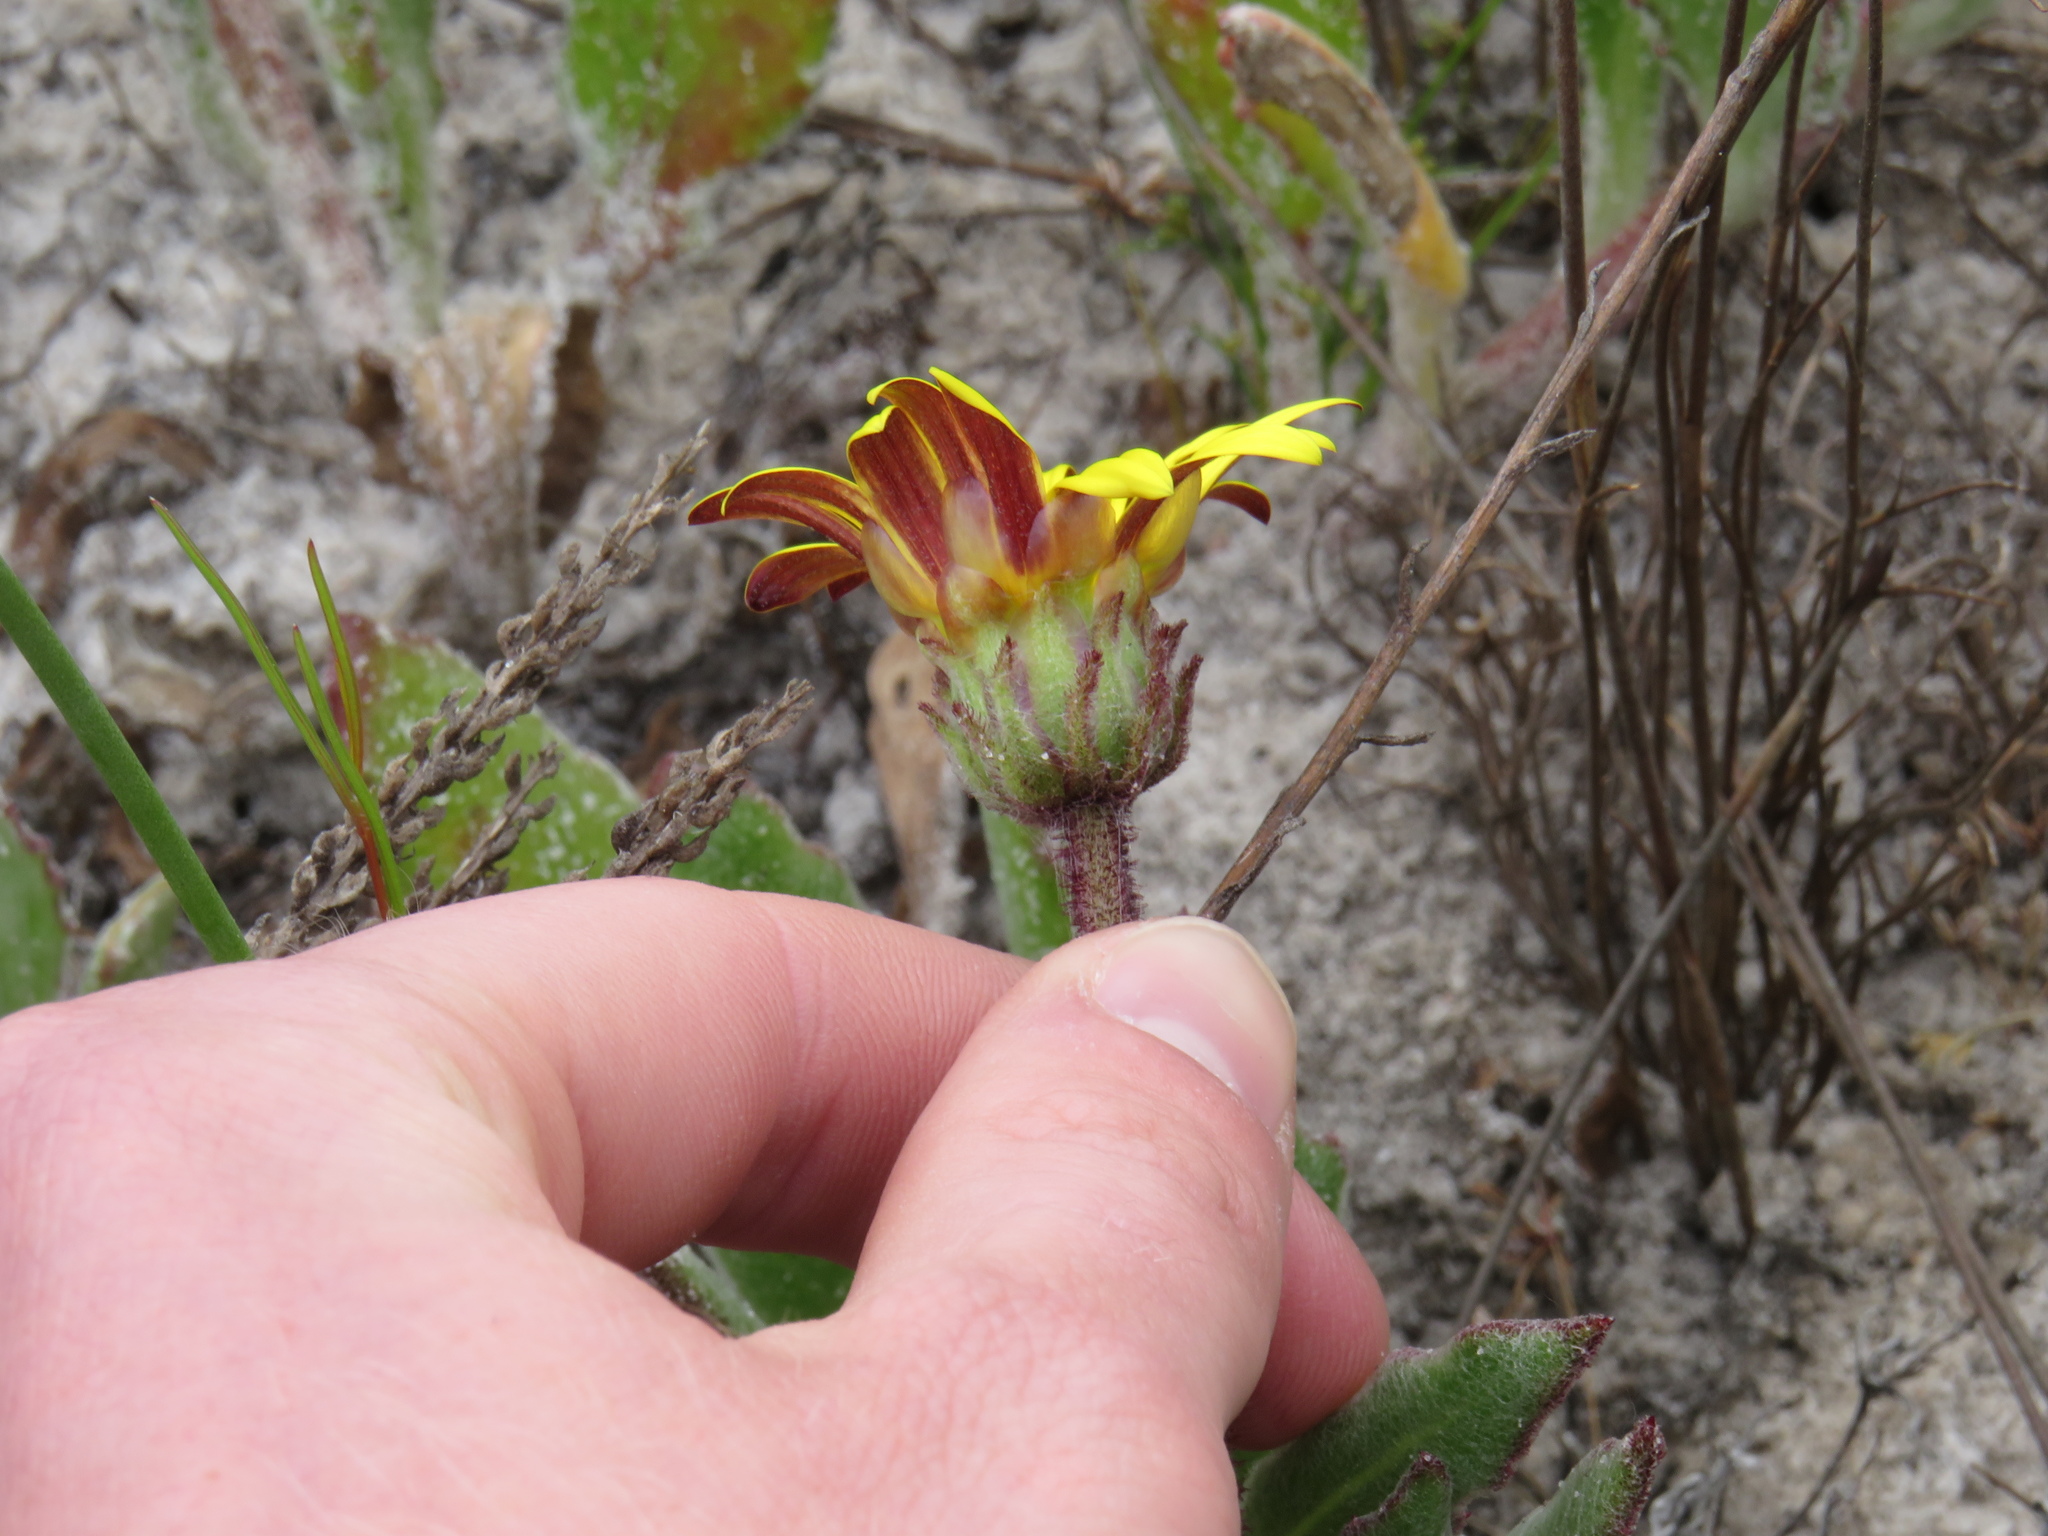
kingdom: Plantae
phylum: Tracheophyta
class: Magnoliopsida
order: Asterales
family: Asteraceae
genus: Arctotis
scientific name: Arctotis angustifolia
